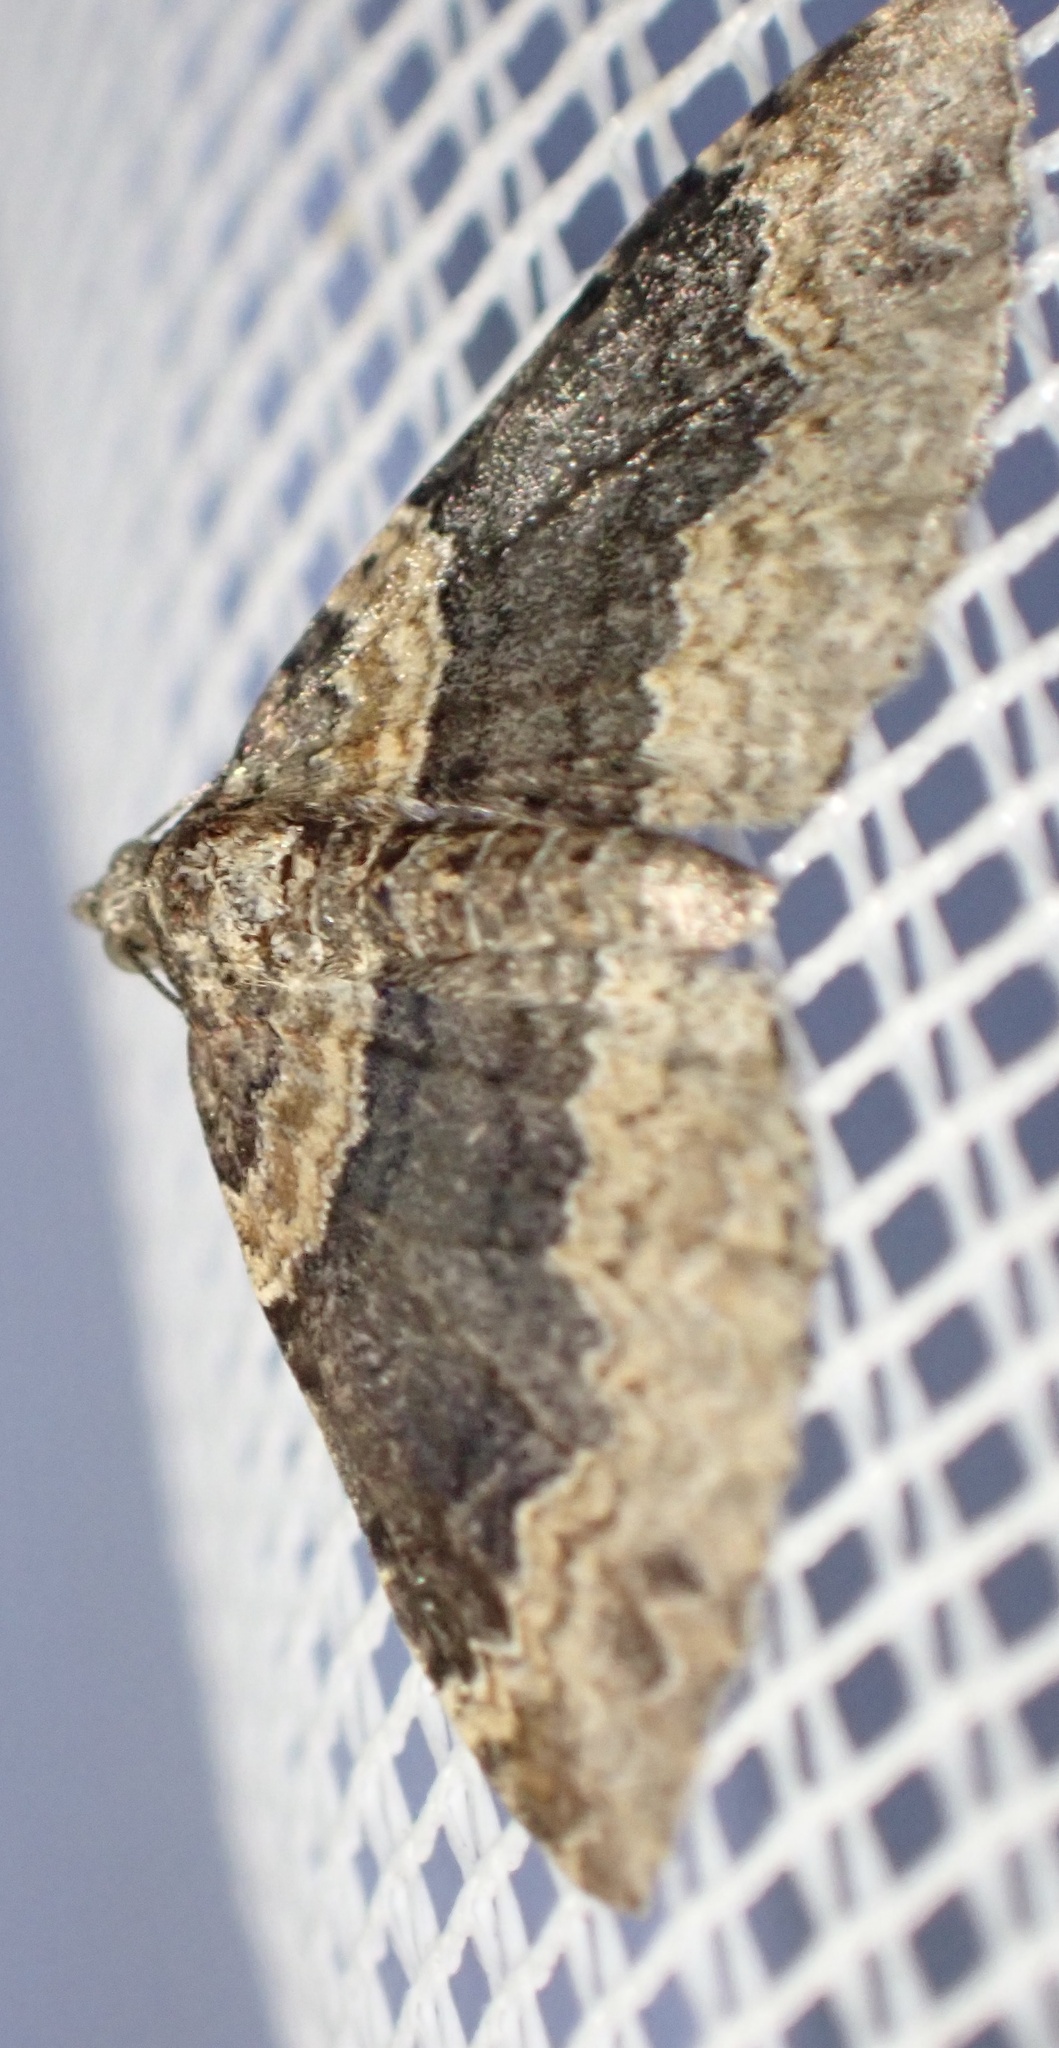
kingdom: Animalia
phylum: Arthropoda
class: Insecta
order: Lepidoptera
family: Geometridae
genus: Xanthorhoe
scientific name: Xanthorhoe ferrugata
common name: Dark-barred twin-spot carpet
